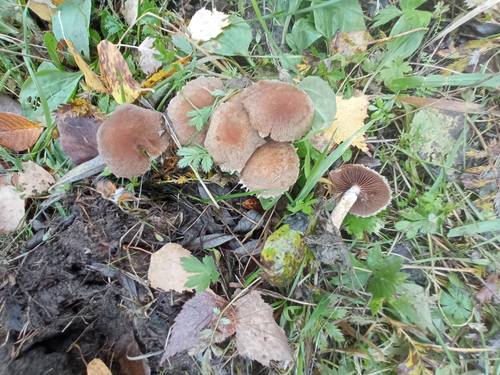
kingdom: Fungi
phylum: Basidiomycota
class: Agaricomycetes
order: Agaricales
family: Psathyrellaceae
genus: Lacrymaria
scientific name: Lacrymaria lacrymabunda
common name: Weeping widow
